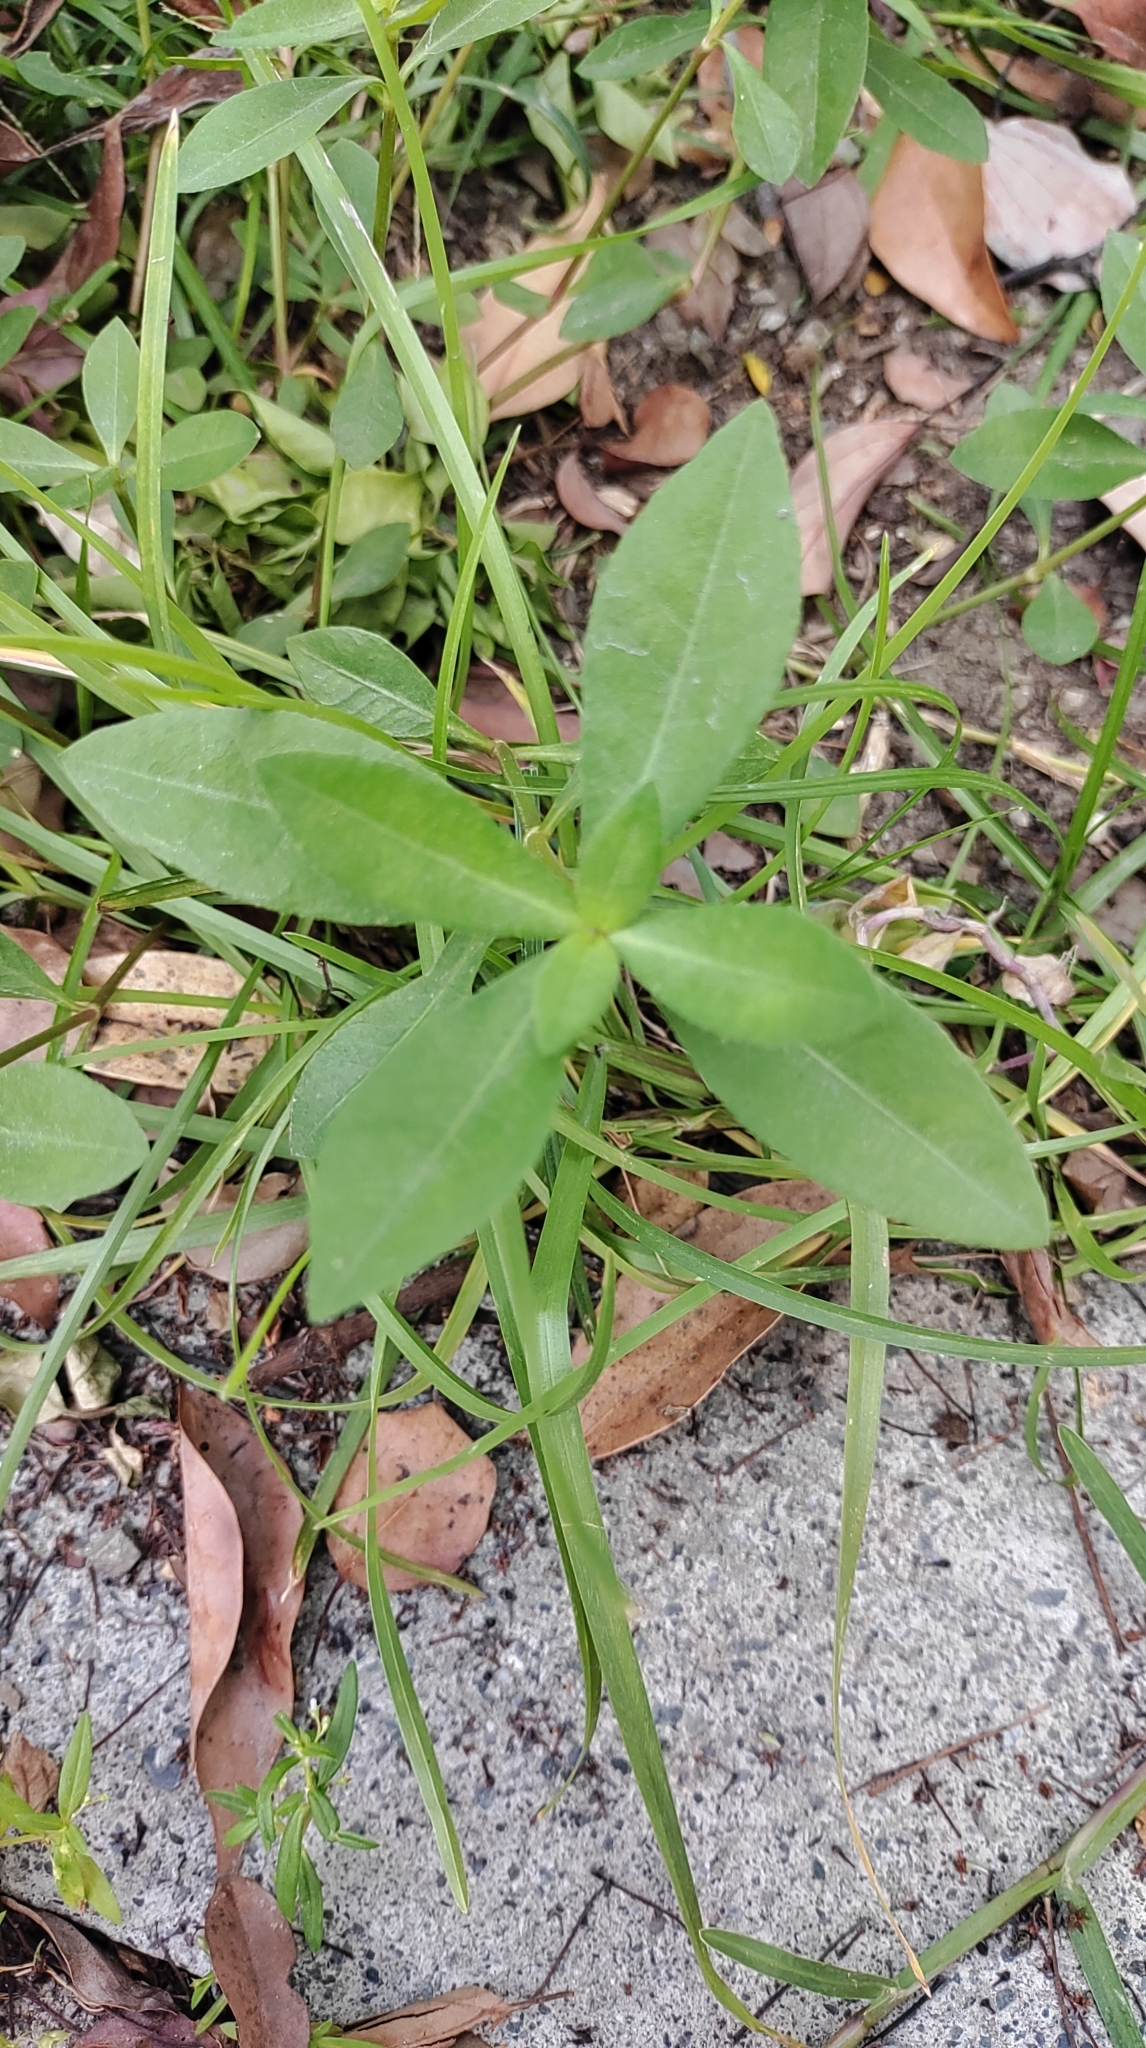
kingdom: Plantae
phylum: Tracheophyta
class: Magnoliopsida
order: Caryophyllales
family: Amaranthaceae
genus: Alternanthera
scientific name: Alternanthera philoxeroides
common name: Alligatorweed
